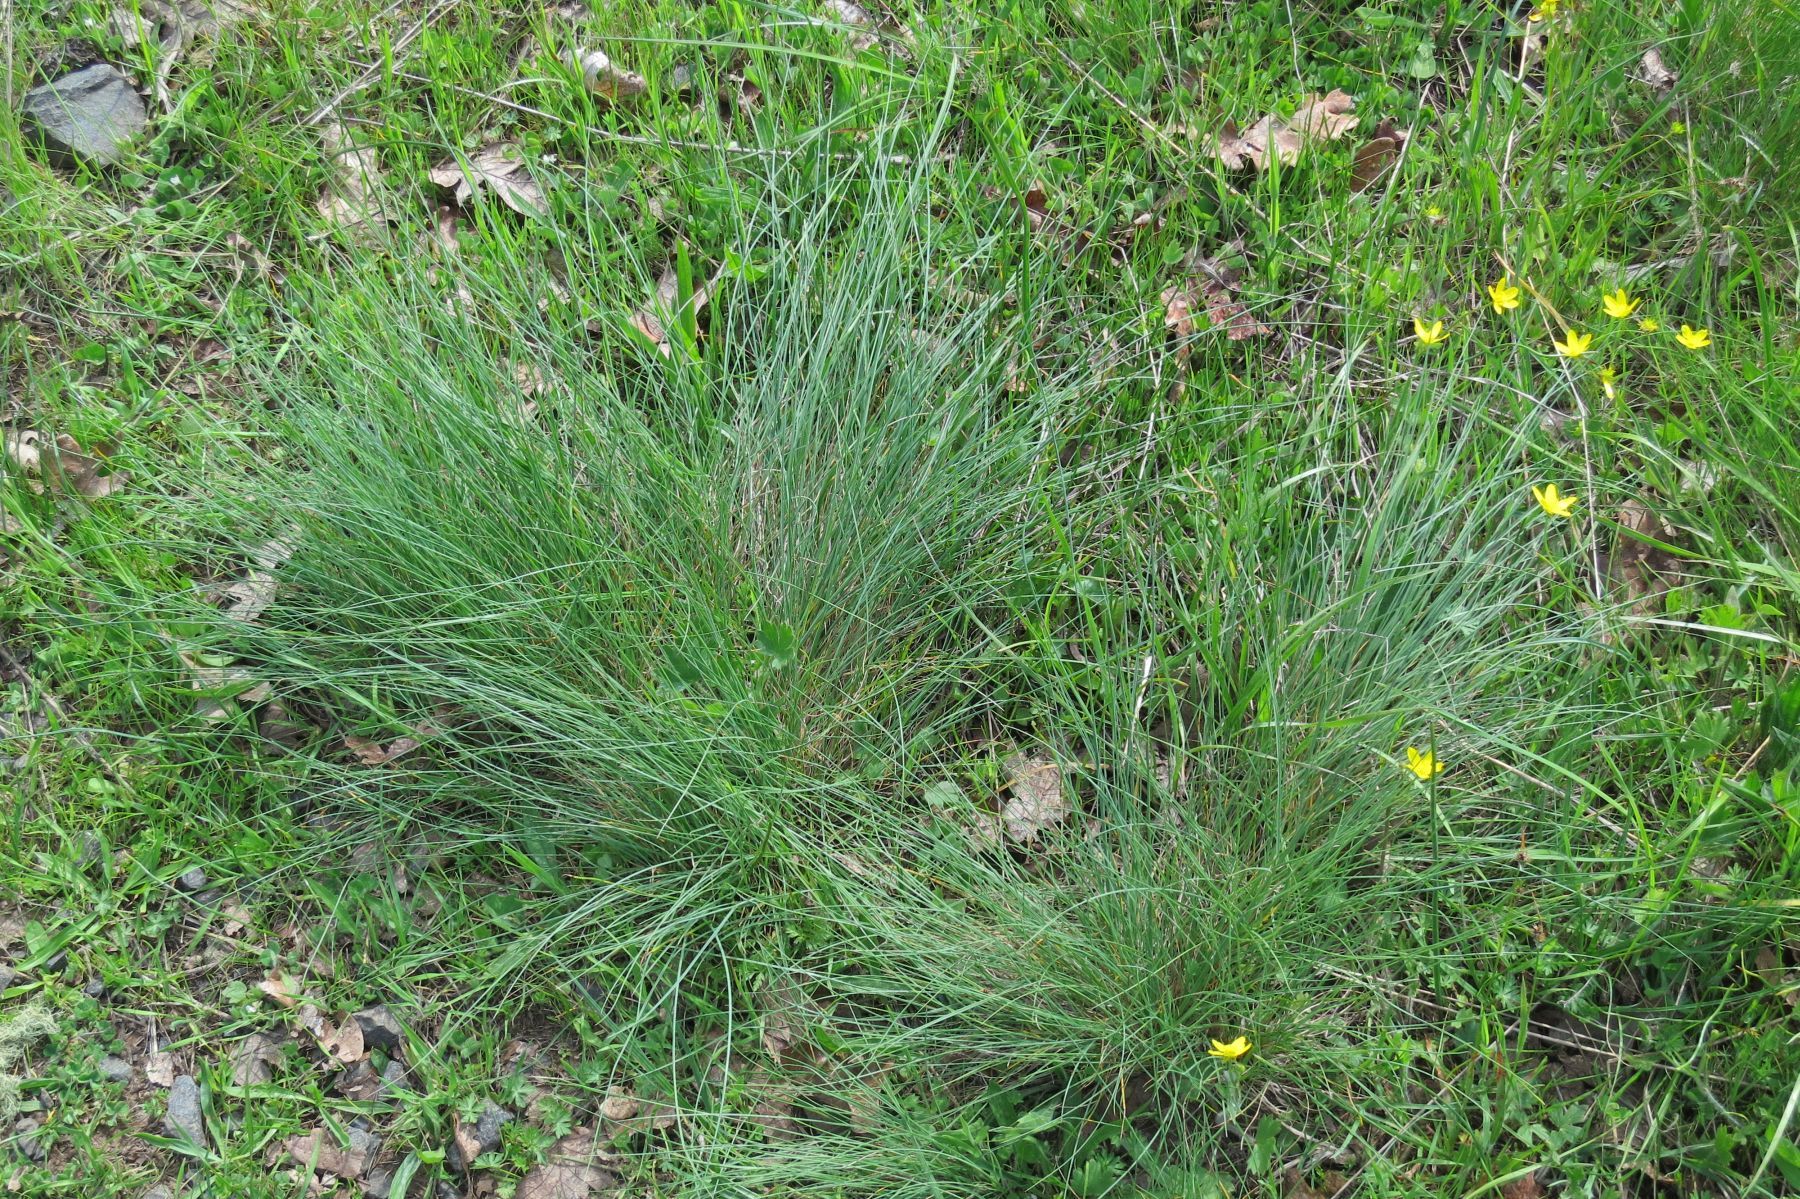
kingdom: Plantae
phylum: Tracheophyta
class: Liliopsida
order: Poales
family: Poaceae
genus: Festuca
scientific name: Festuca idahoensis
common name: Idaho fescue
